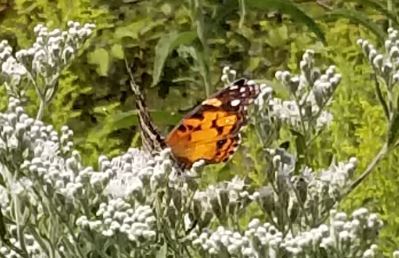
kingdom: Animalia
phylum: Arthropoda
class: Insecta
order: Lepidoptera
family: Nymphalidae
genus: Vanessa
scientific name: Vanessa virginiensis
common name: American lady
